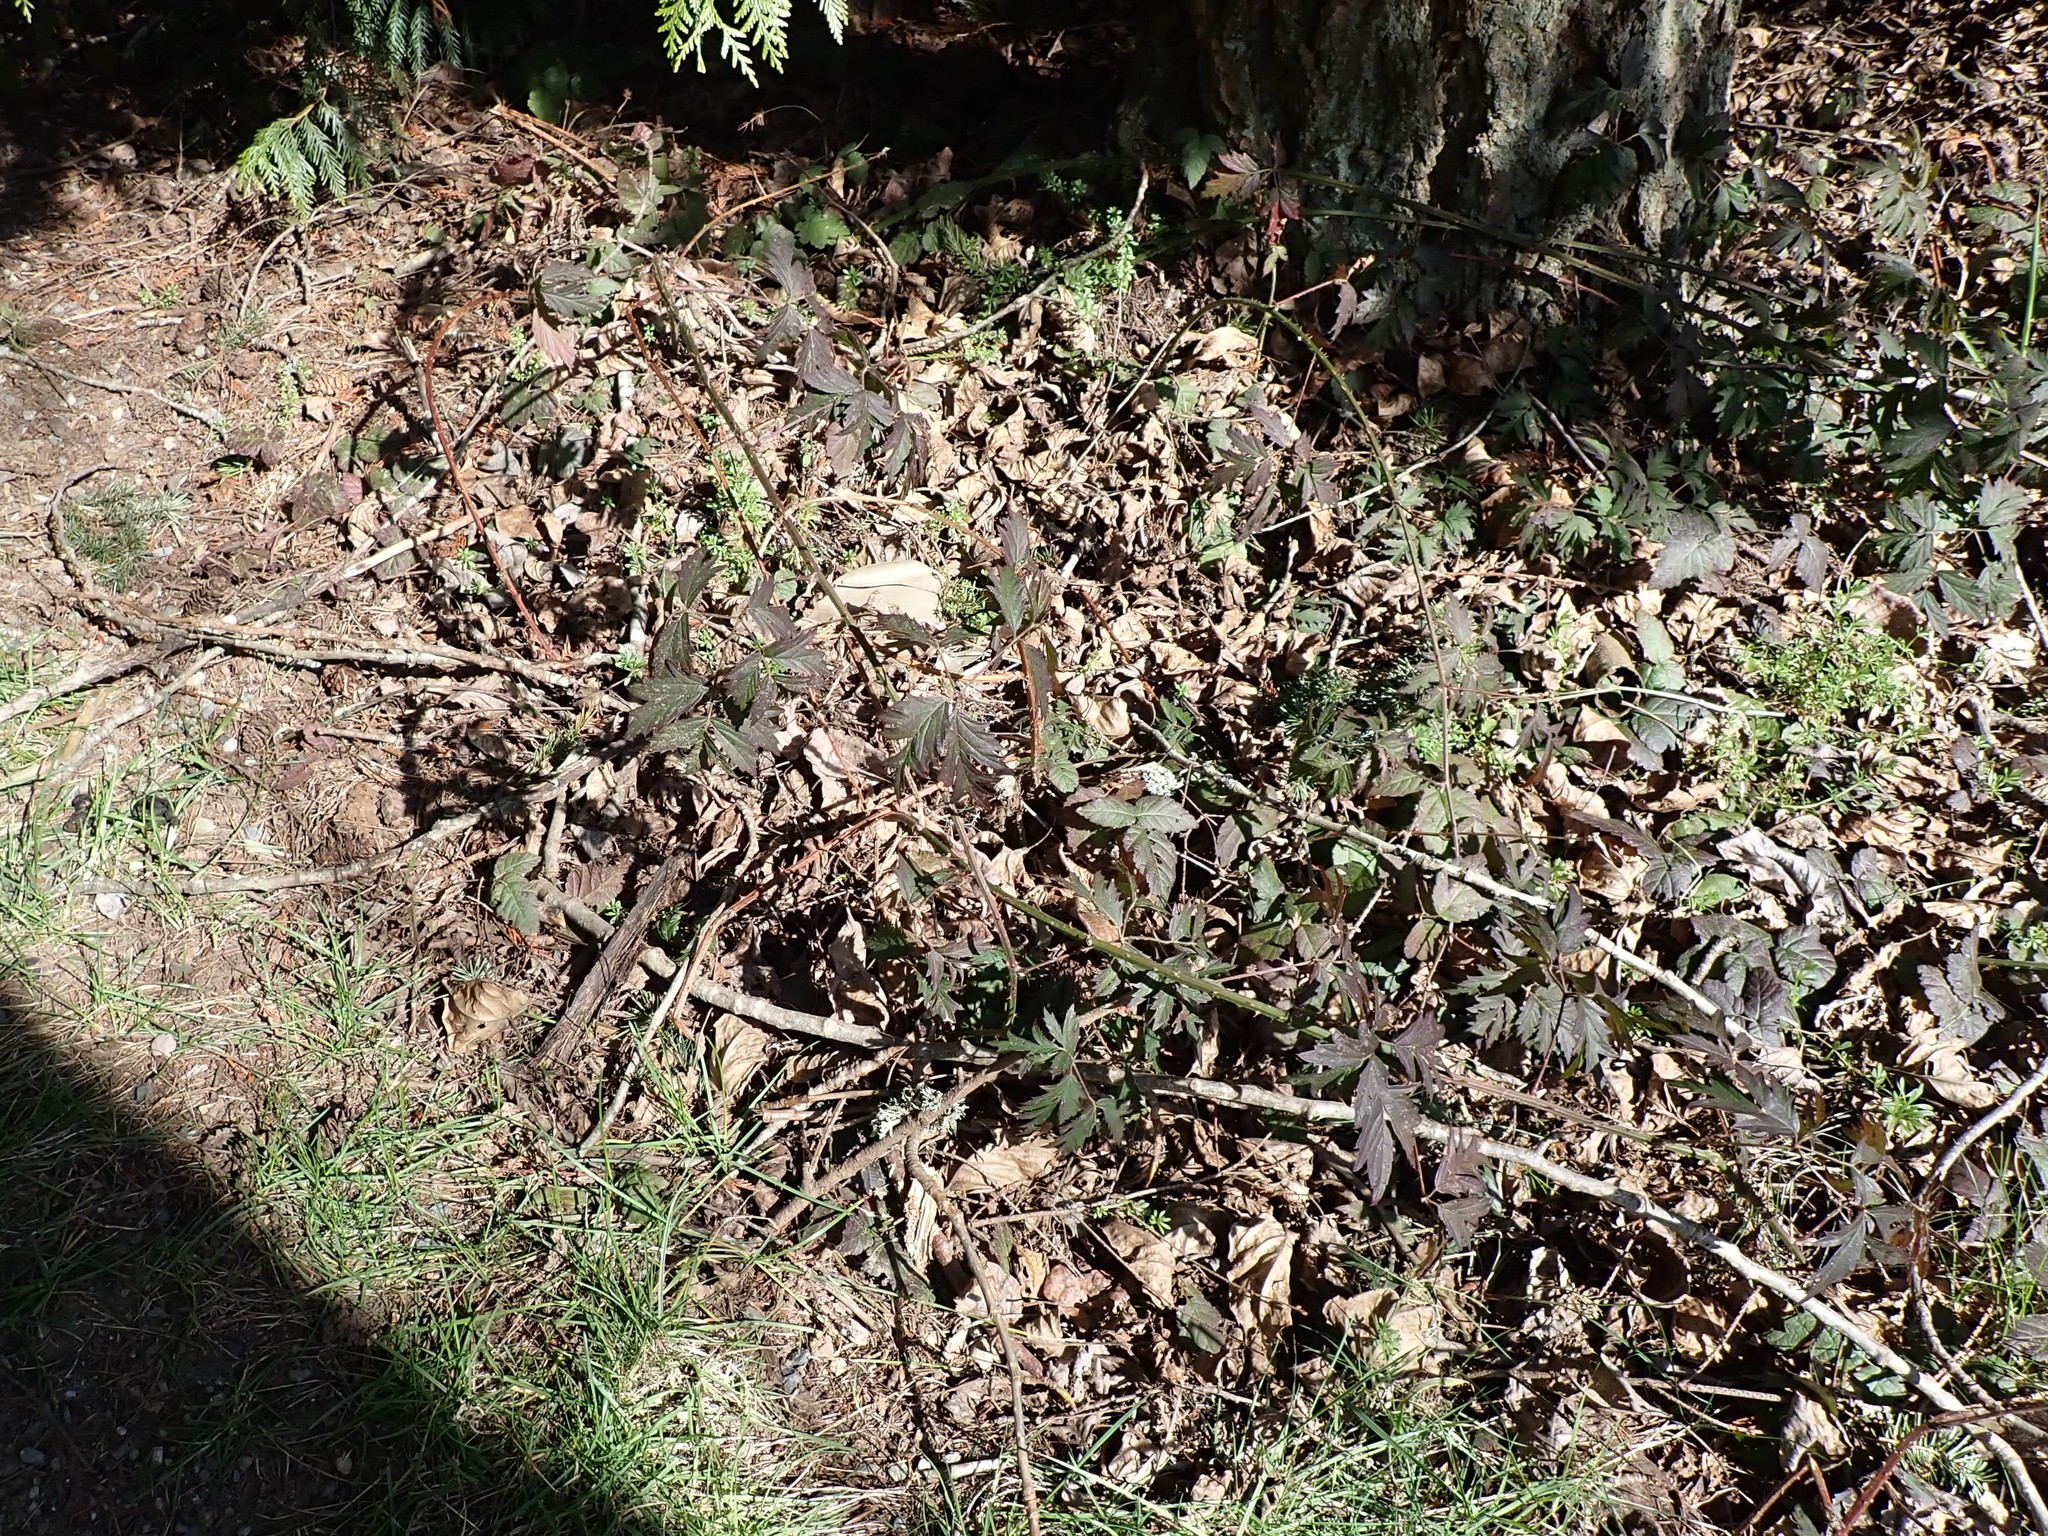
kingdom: Plantae
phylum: Tracheophyta
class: Magnoliopsida
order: Rosales
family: Rosaceae
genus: Rubus
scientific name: Rubus laciniatus
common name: Evergreen blackberry
